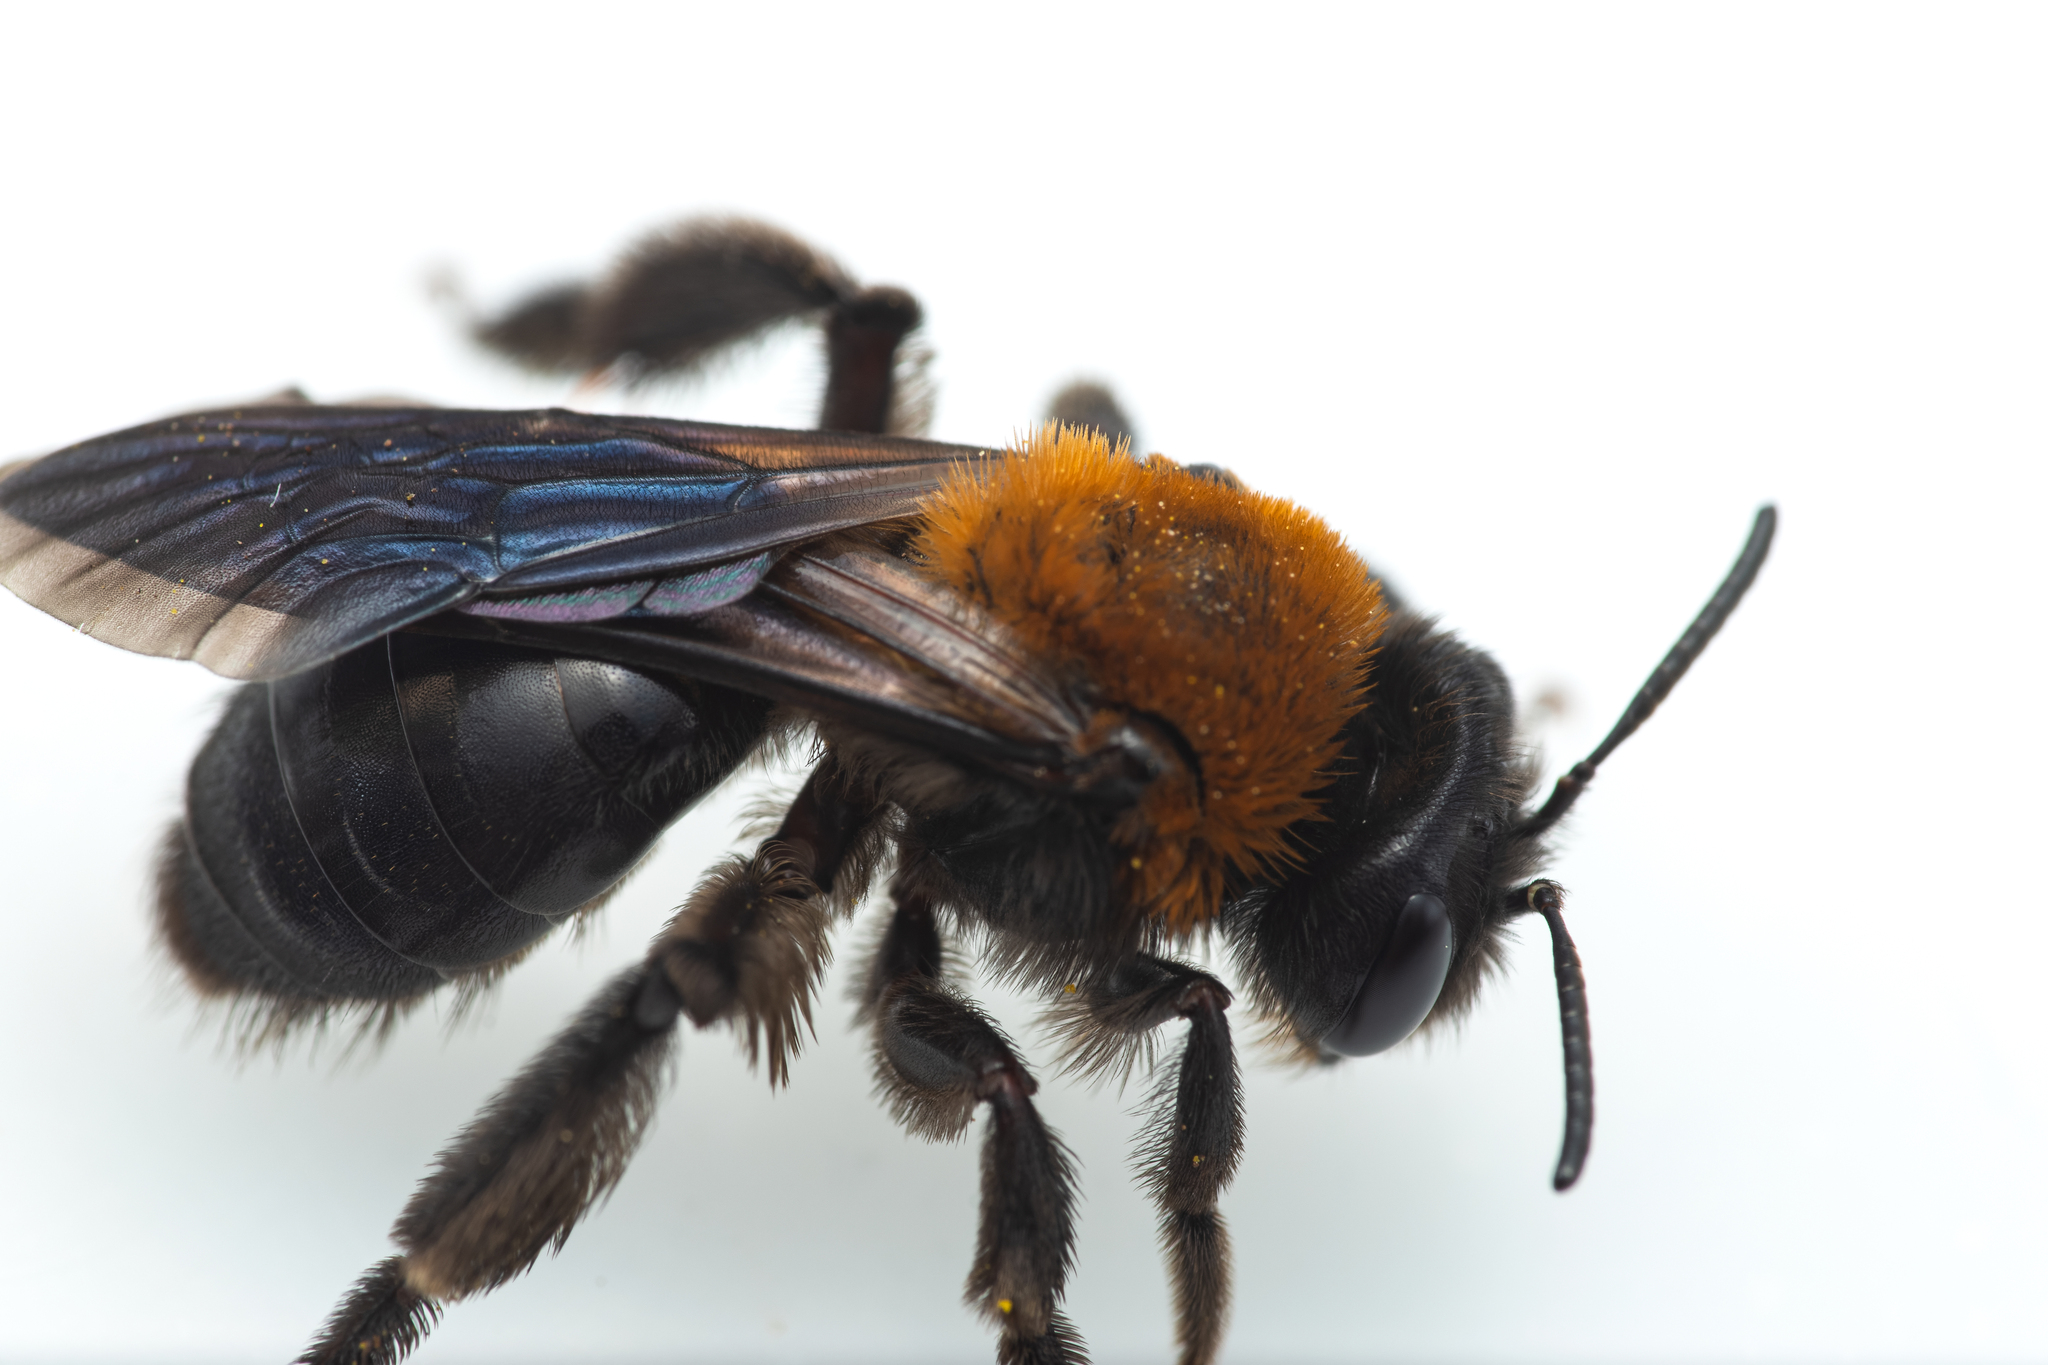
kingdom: Animalia
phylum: Arthropoda
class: Insecta
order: Hymenoptera
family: Andrenidae
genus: Andrena
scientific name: Andrena thoracica
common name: Cliff mining bee
